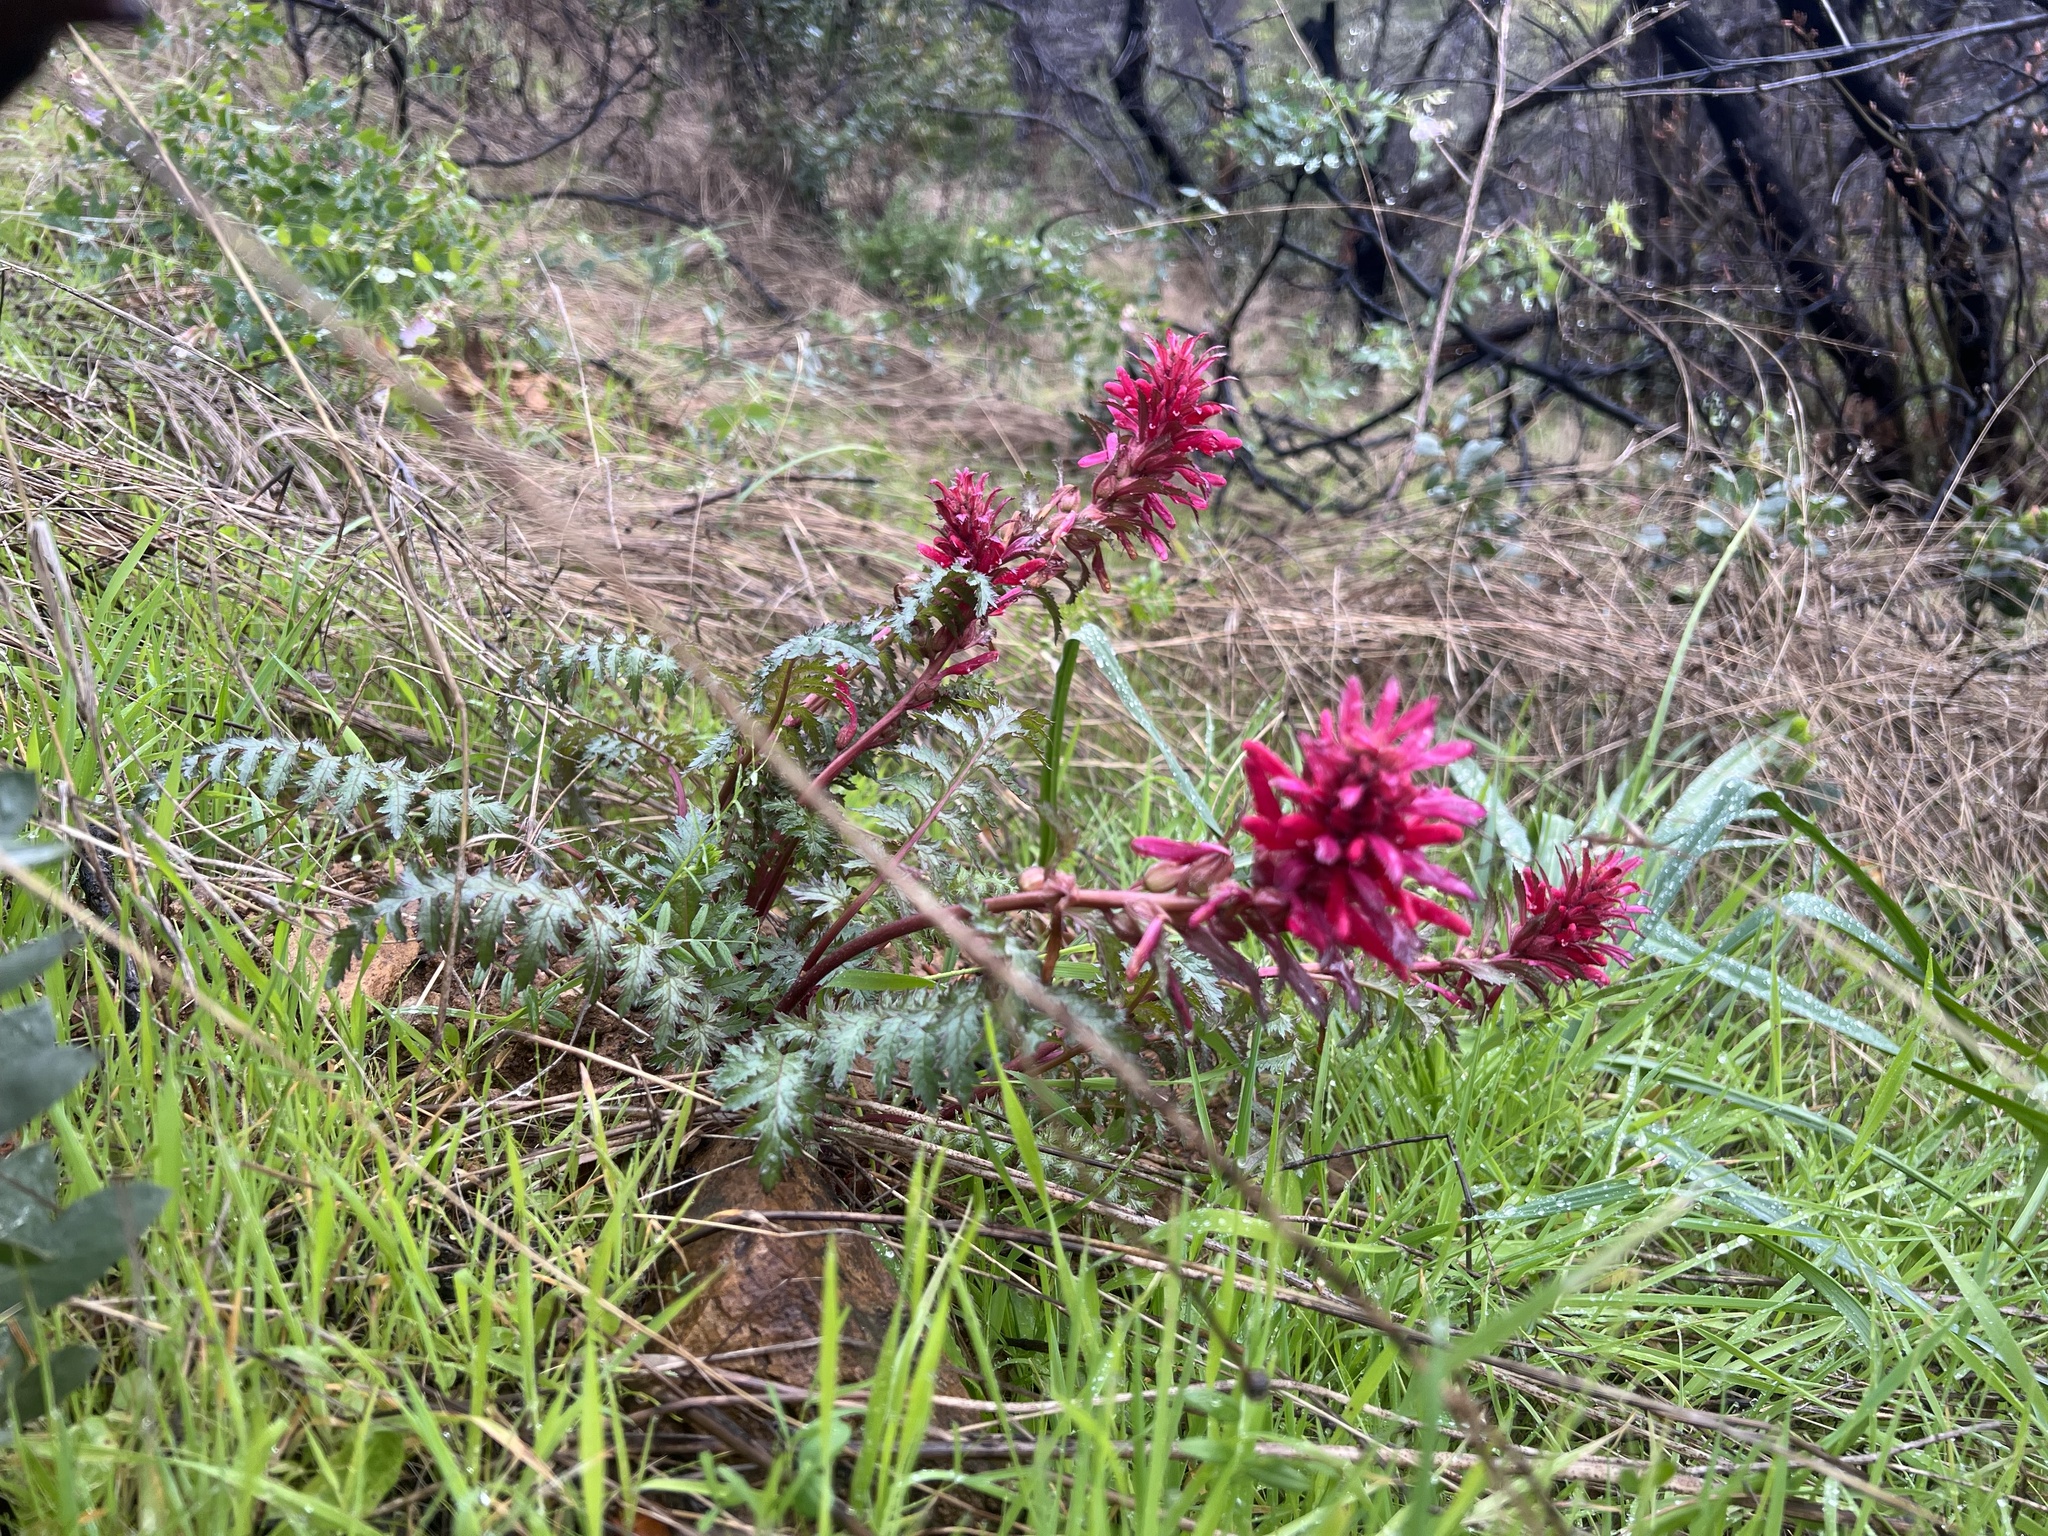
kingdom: Plantae
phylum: Tracheophyta
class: Magnoliopsida
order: Lamiales
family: Orobanchaceae
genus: Pedicularis
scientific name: Pedicularis densiflora
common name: Indian warrior
